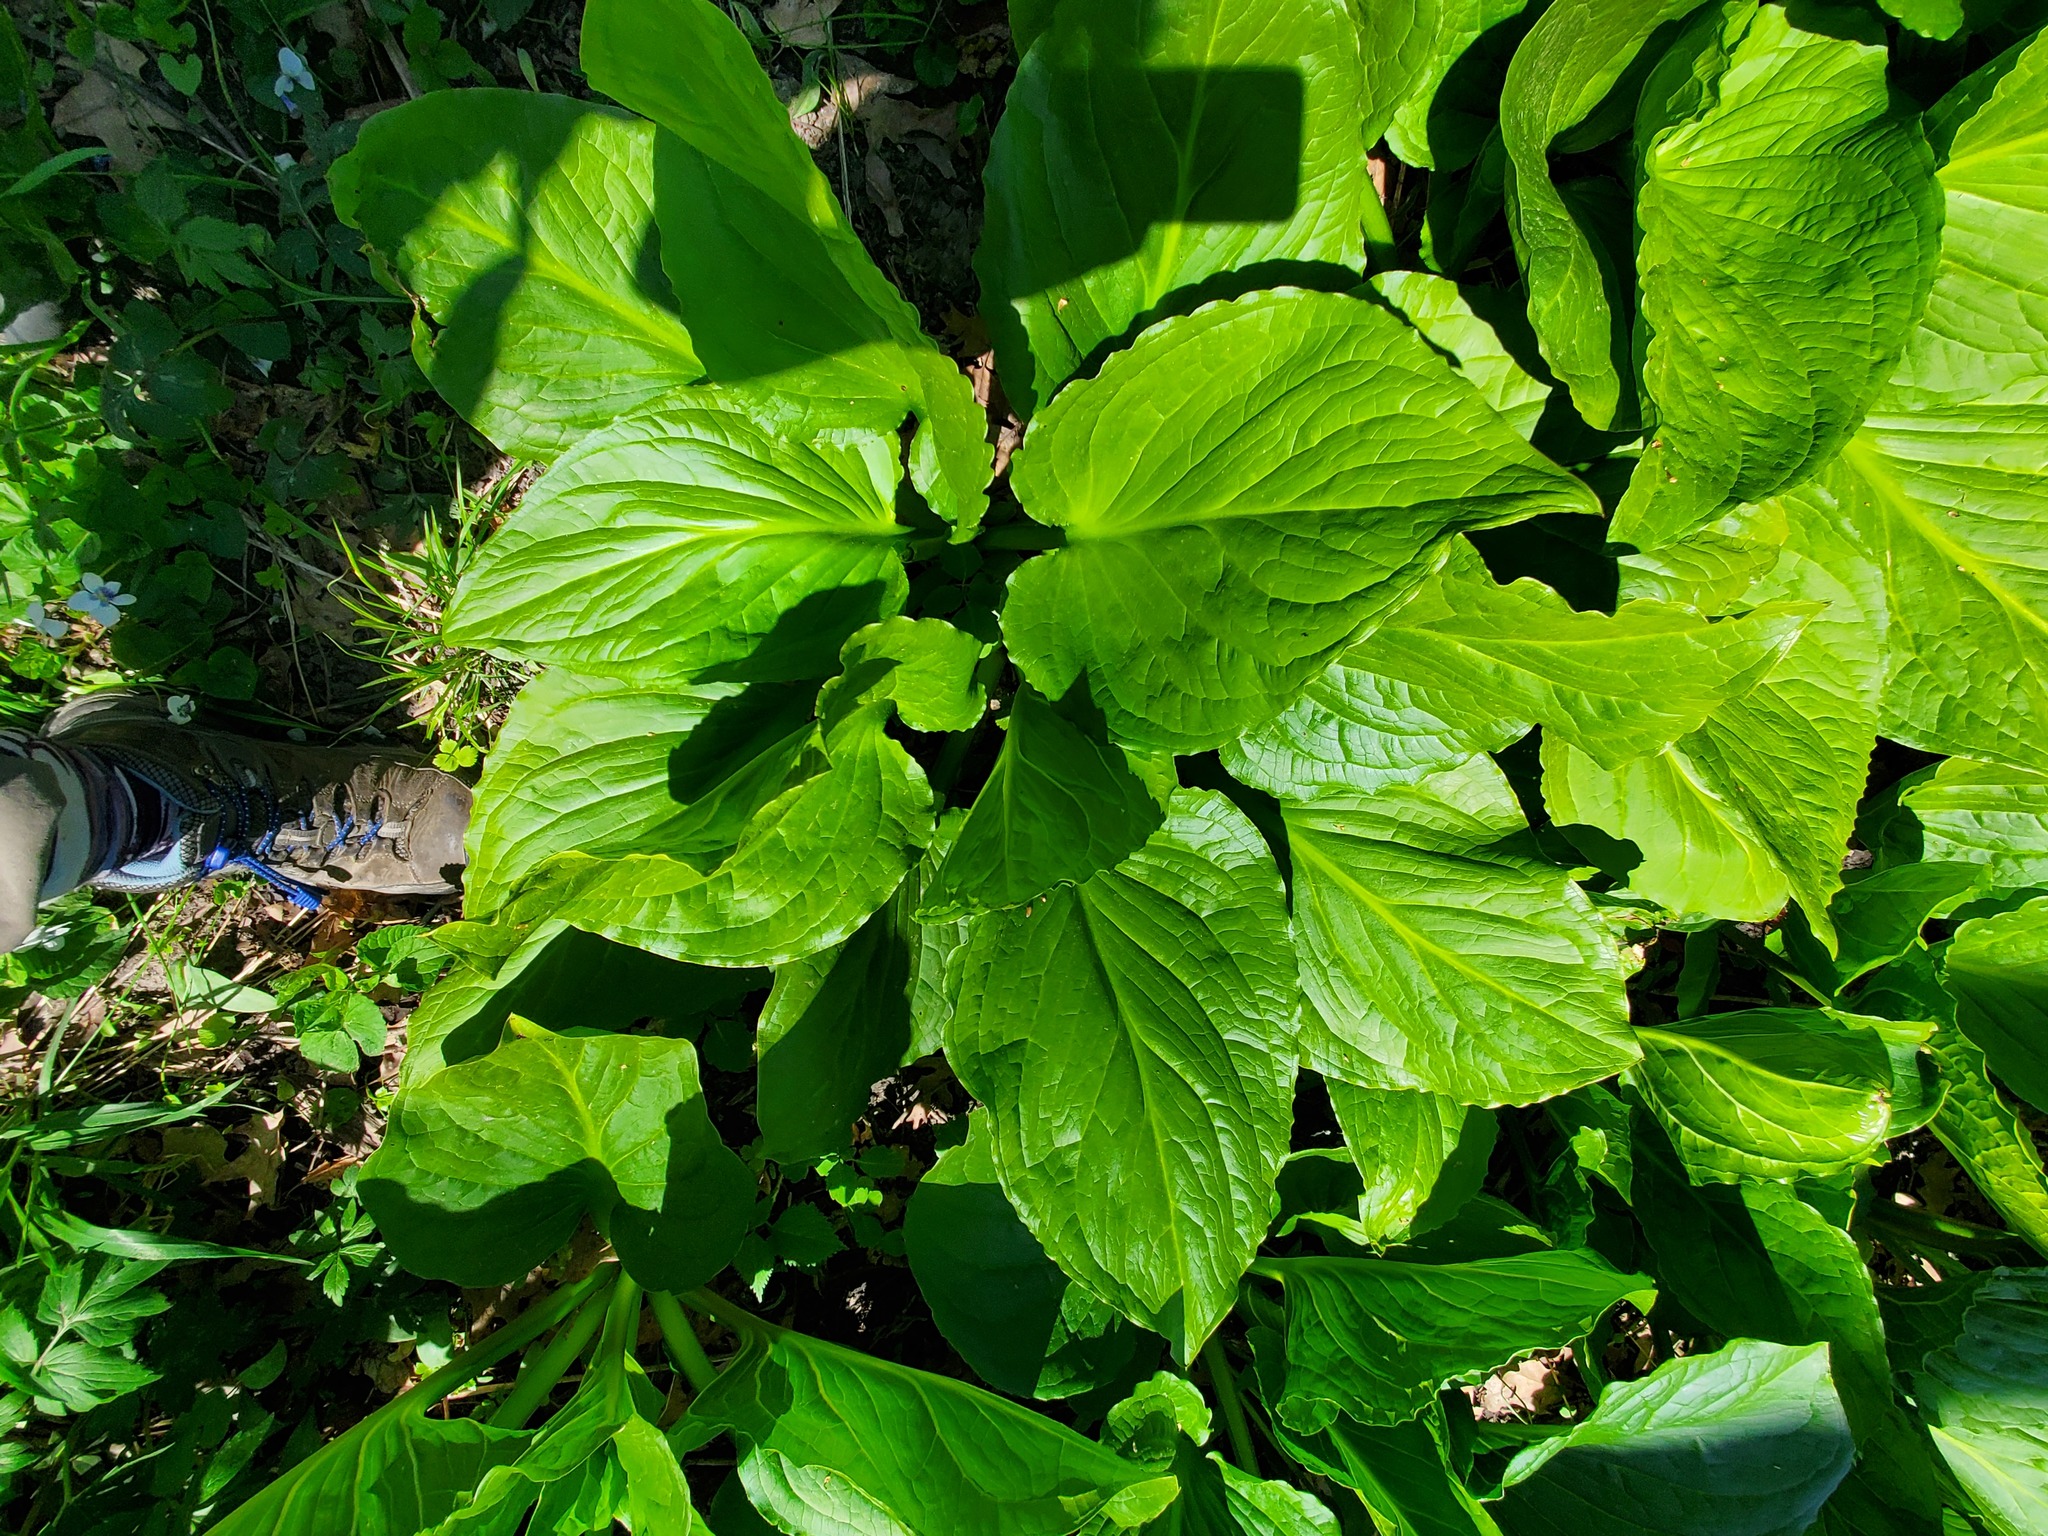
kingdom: Plantae
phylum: Tracheophyta
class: Liliopsida
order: Alismatales
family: Araceae
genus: Symplocarpus
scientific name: Symplocarpus foetidus
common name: Eastern skunk cabbage
